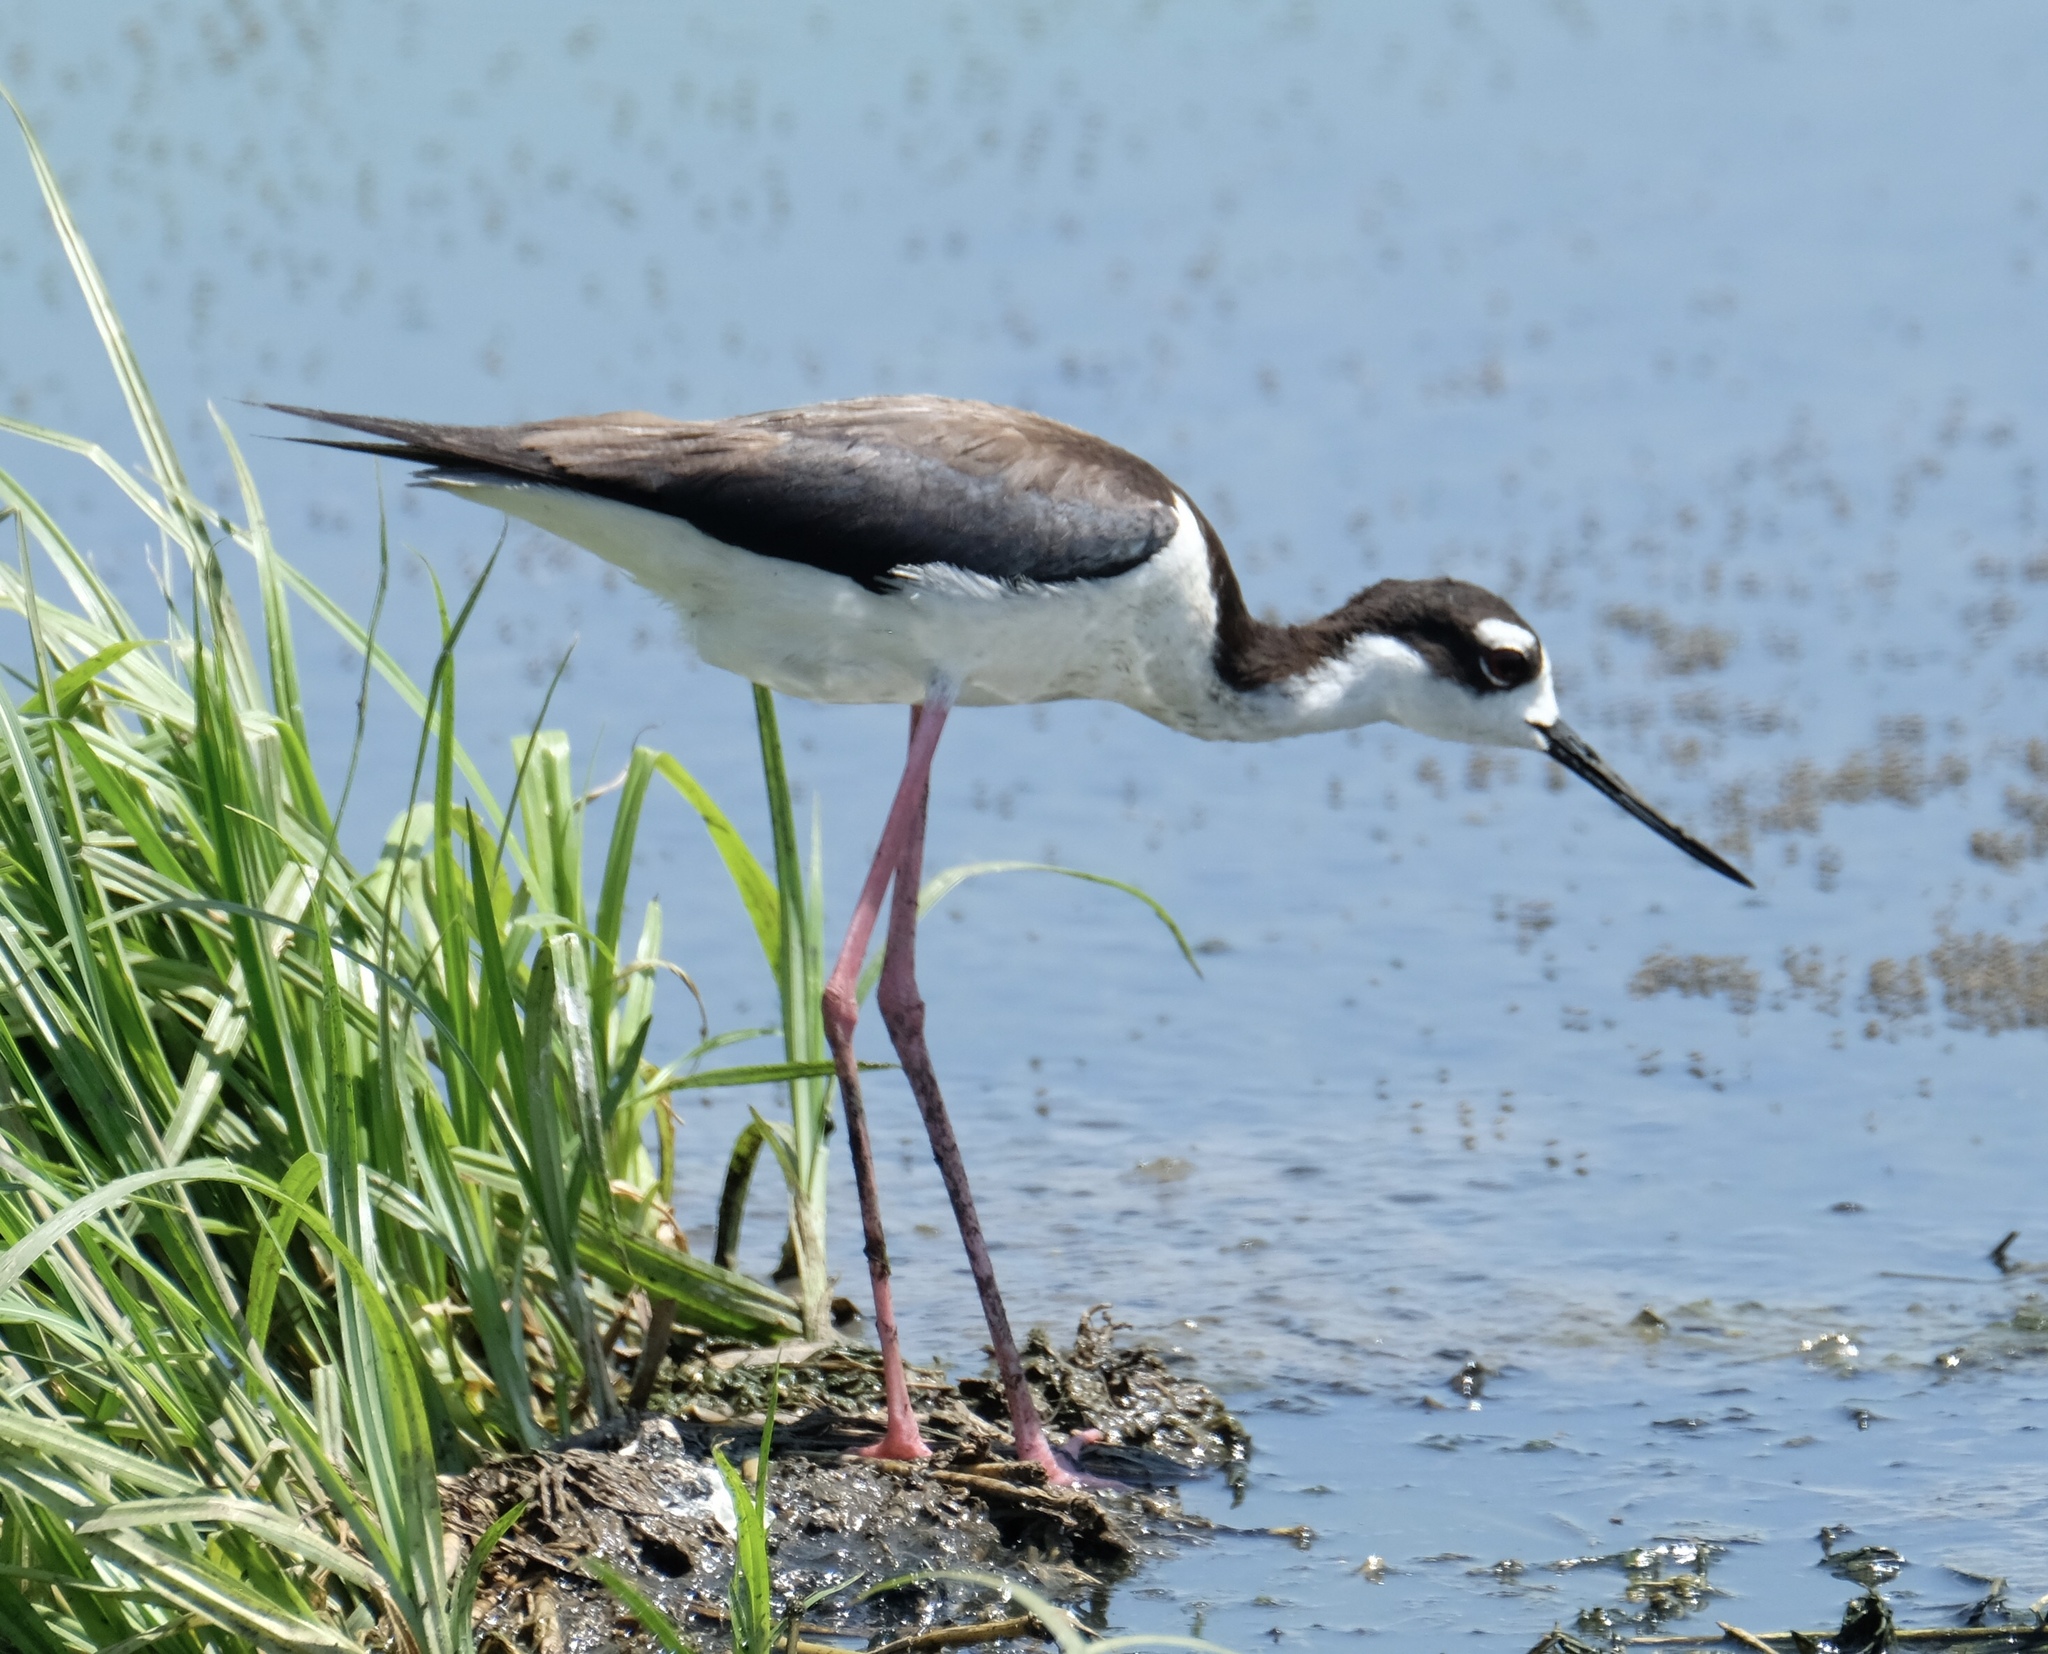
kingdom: Animalia
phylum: Chordata
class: Aves
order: Charadriiformes
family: Recurvirostridae
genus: Himantopus
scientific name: Himantopus mexicanus
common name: Black-necked stilt
